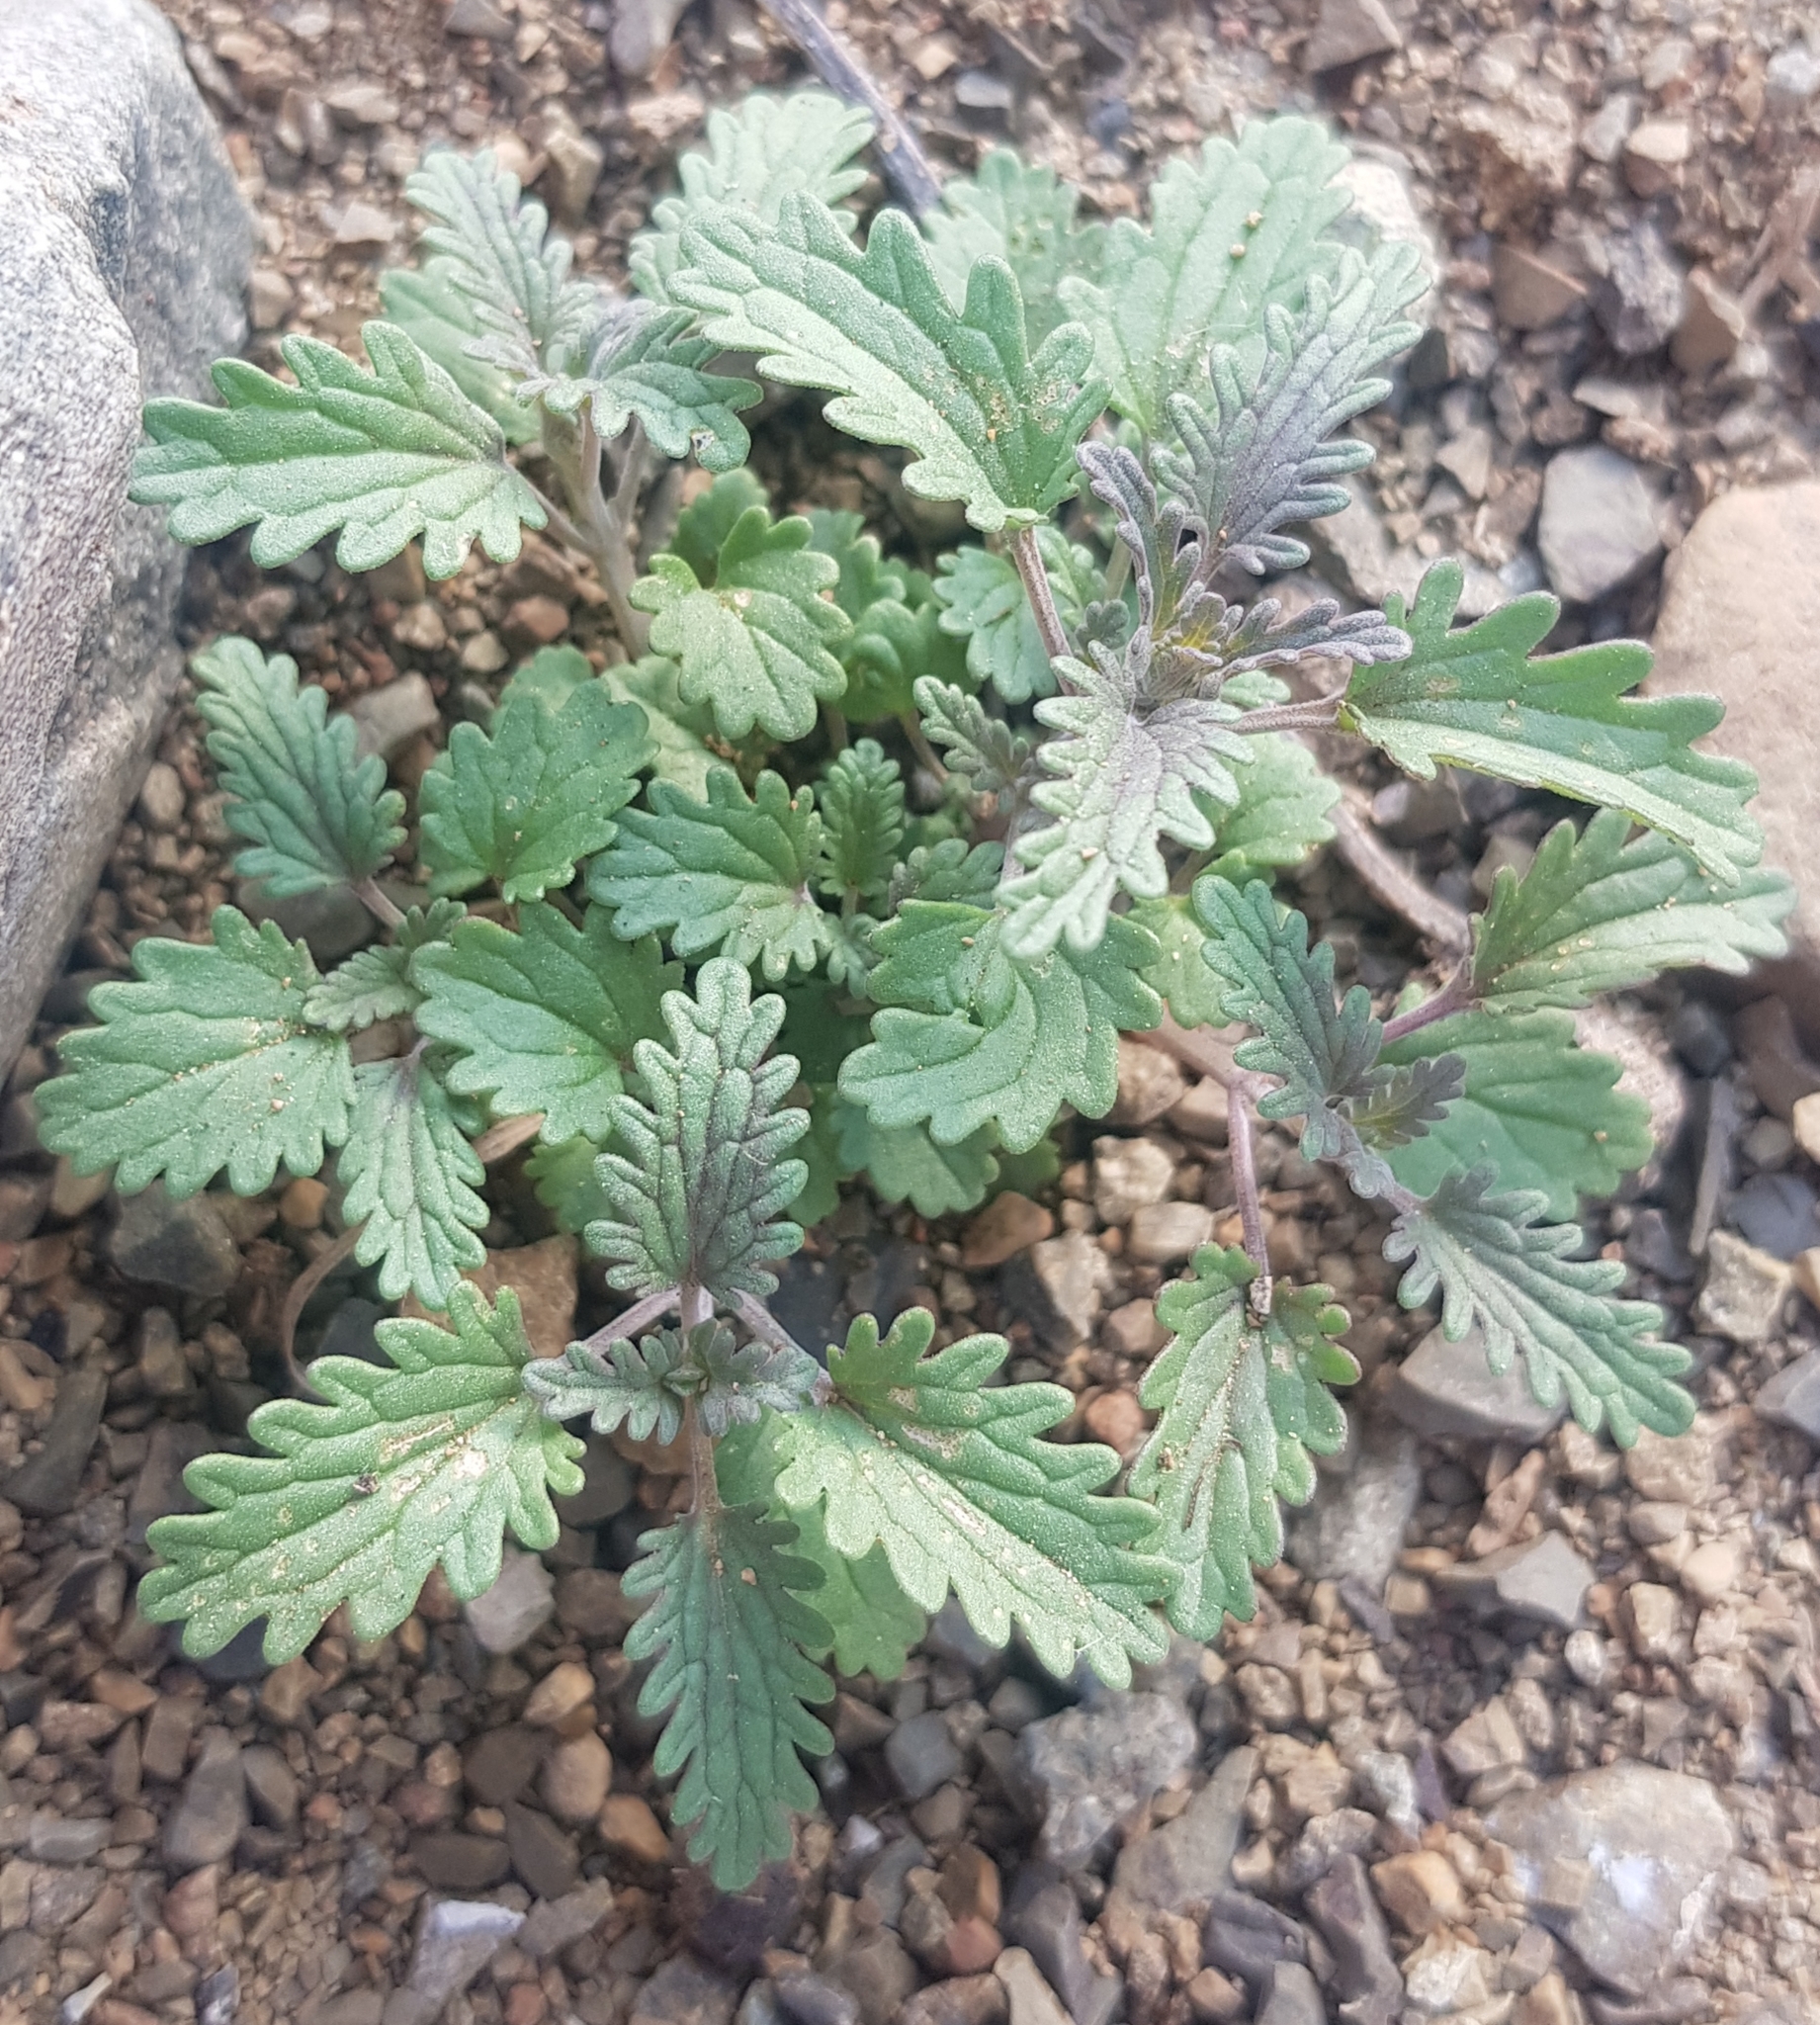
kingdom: Plantae
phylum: Tracheophyta
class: Magnoliopsida
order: Lamiales
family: Lamiaceae
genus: Dracocephalum
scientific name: Dracocephalum foetidum
